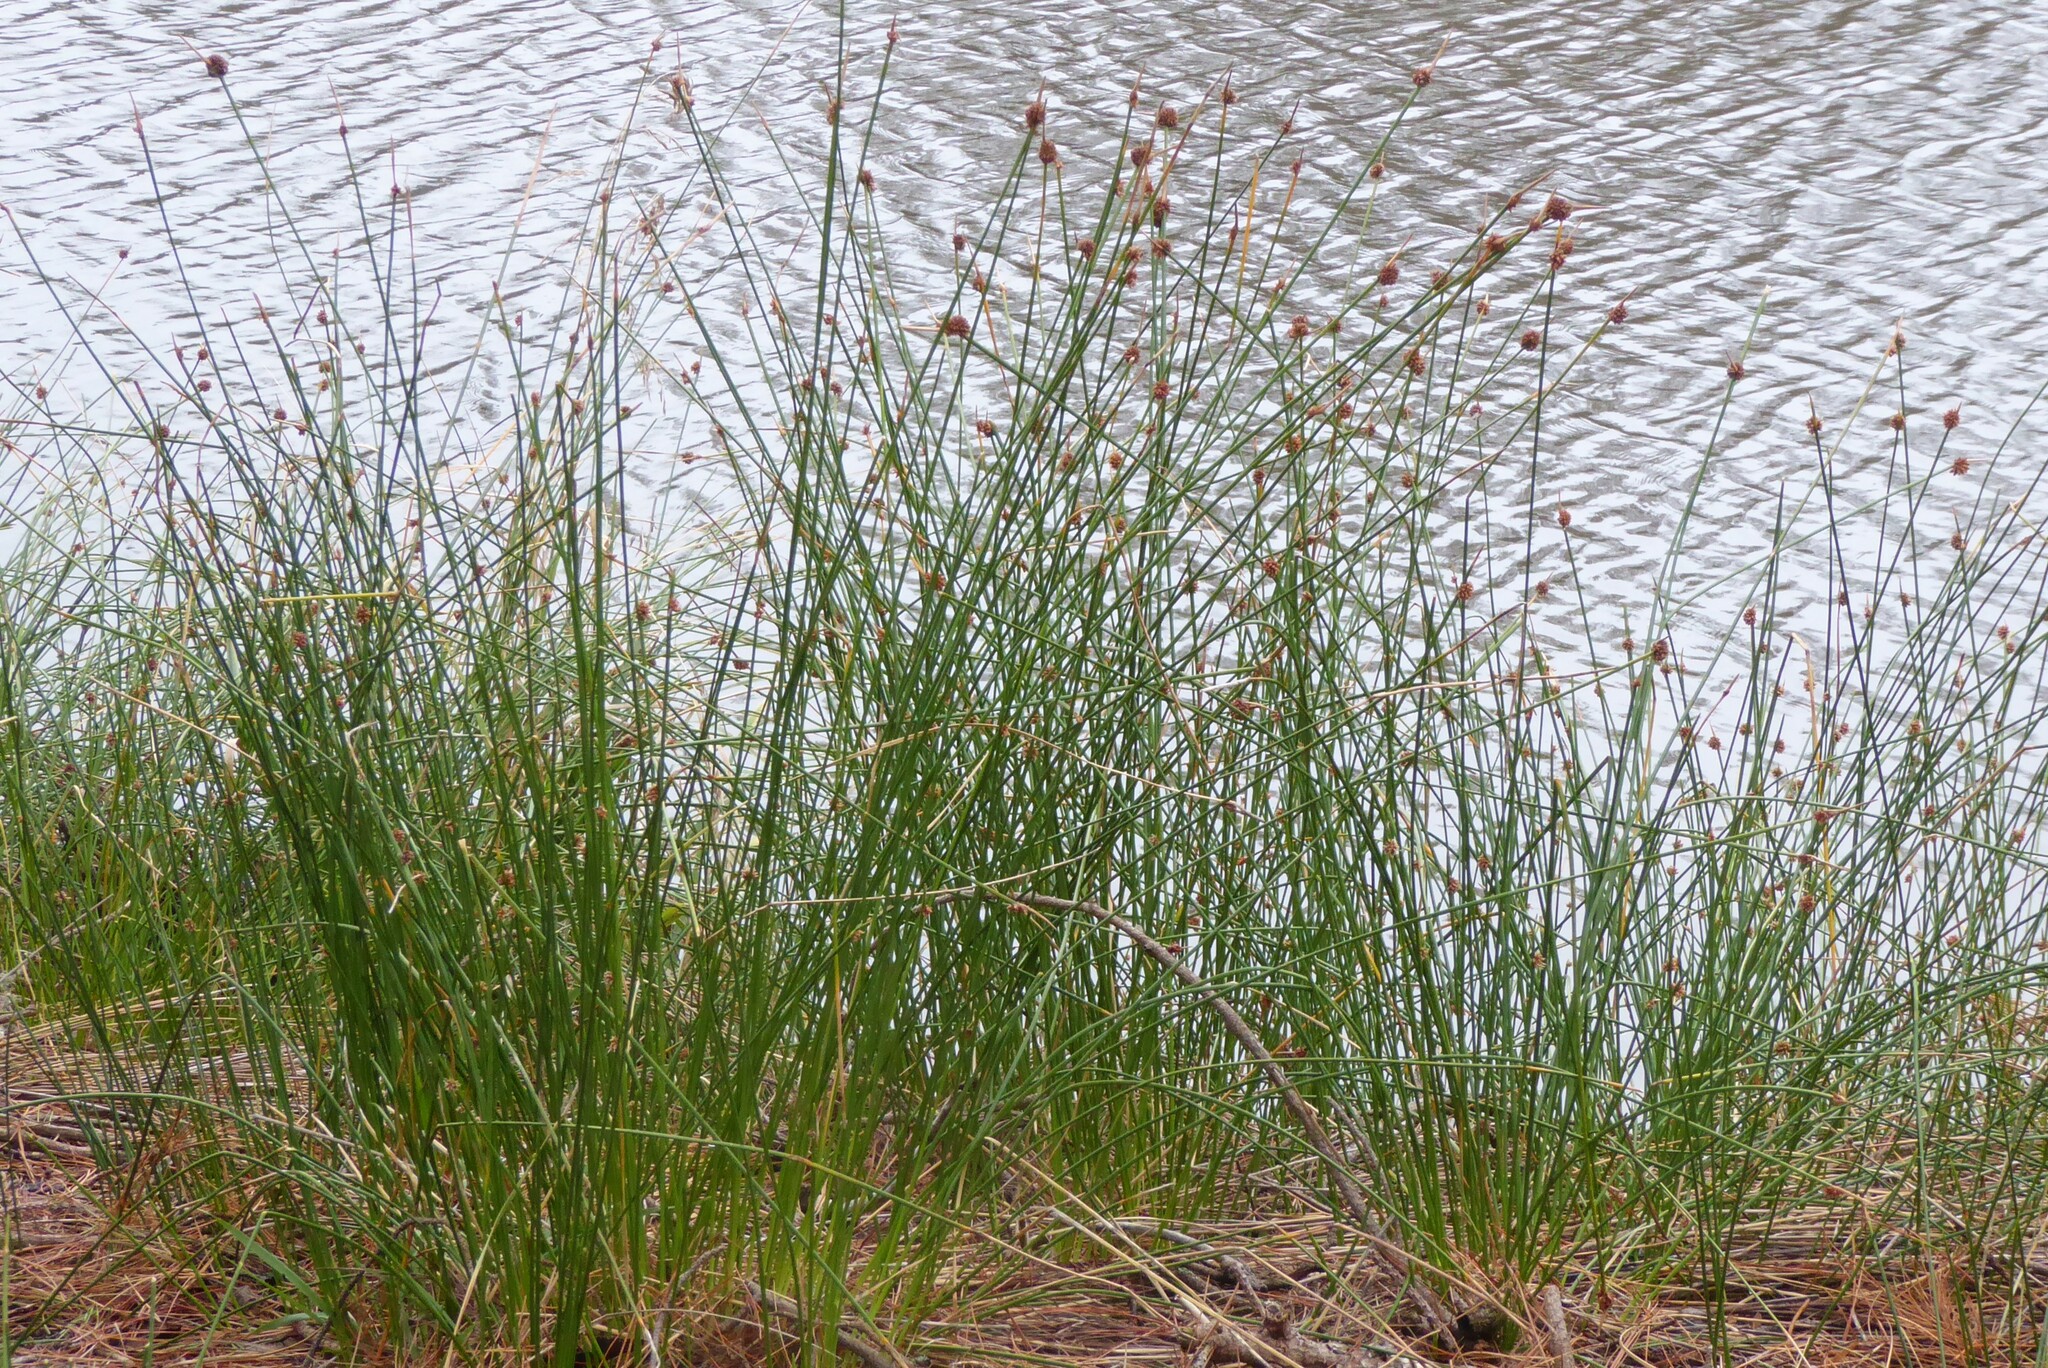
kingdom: Plantae
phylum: Tracheophyta
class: Liliopsida
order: Poales
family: Cyperaceae
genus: Ficinia
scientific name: Ficinia nodosa
